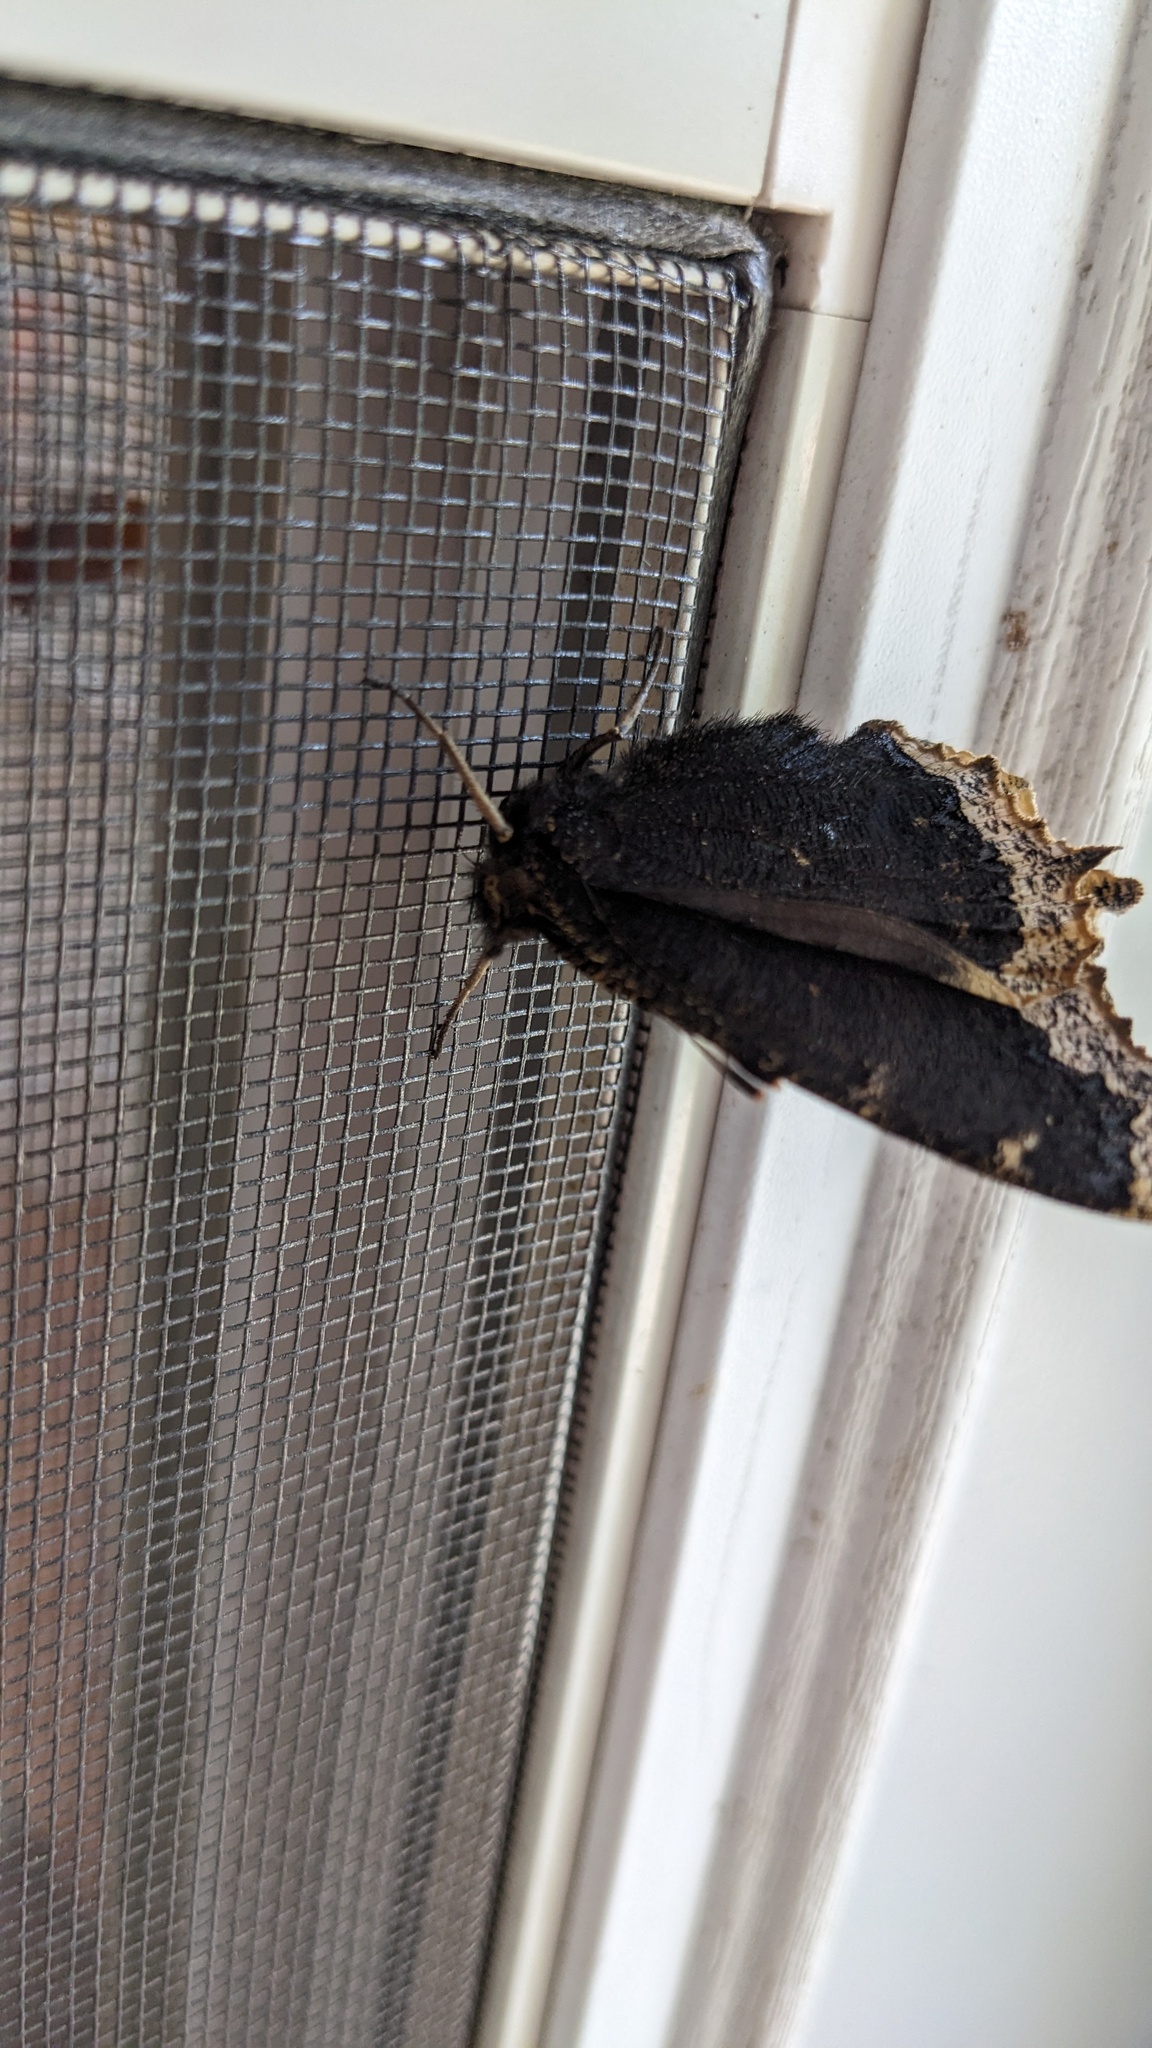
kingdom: Animalia
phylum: Arthropoda
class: Insecta
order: Lepidoptera
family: Nymphalidae
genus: Nymphalis
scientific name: Nymphalis antiopa
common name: Camberwell beauty
